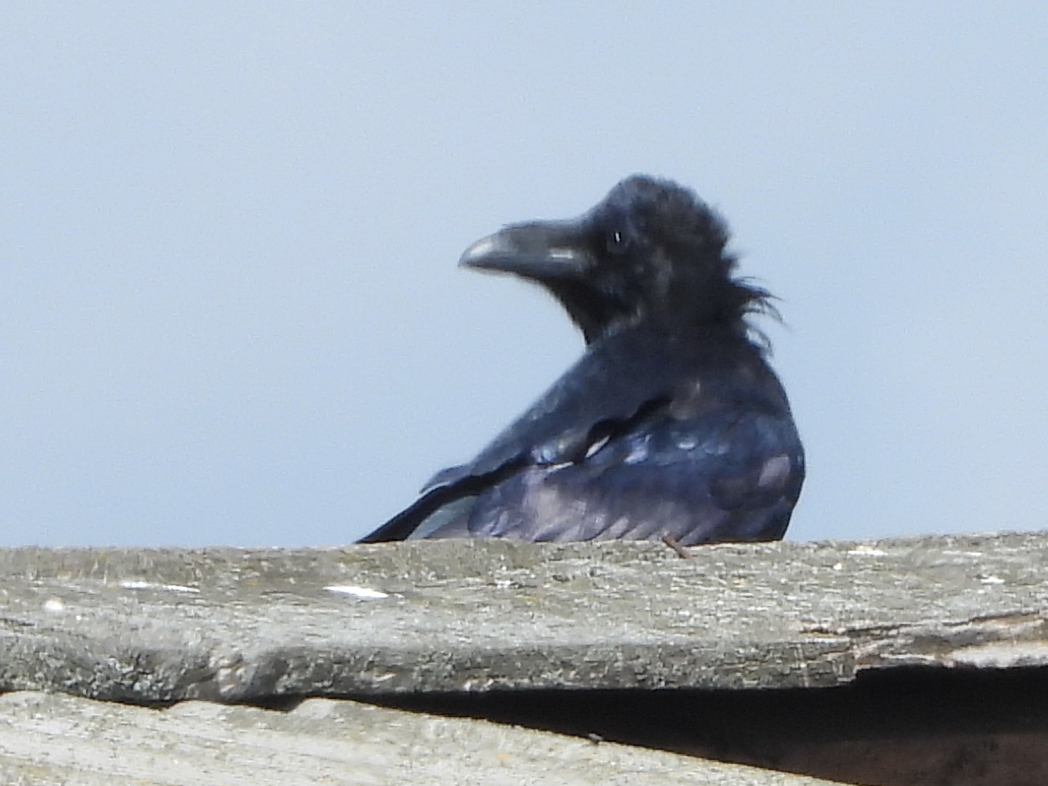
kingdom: Animalia
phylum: Chordata
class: Aves
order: Passeriformes
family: Corvidae
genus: Corvus
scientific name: Corvus corax
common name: Common raven
